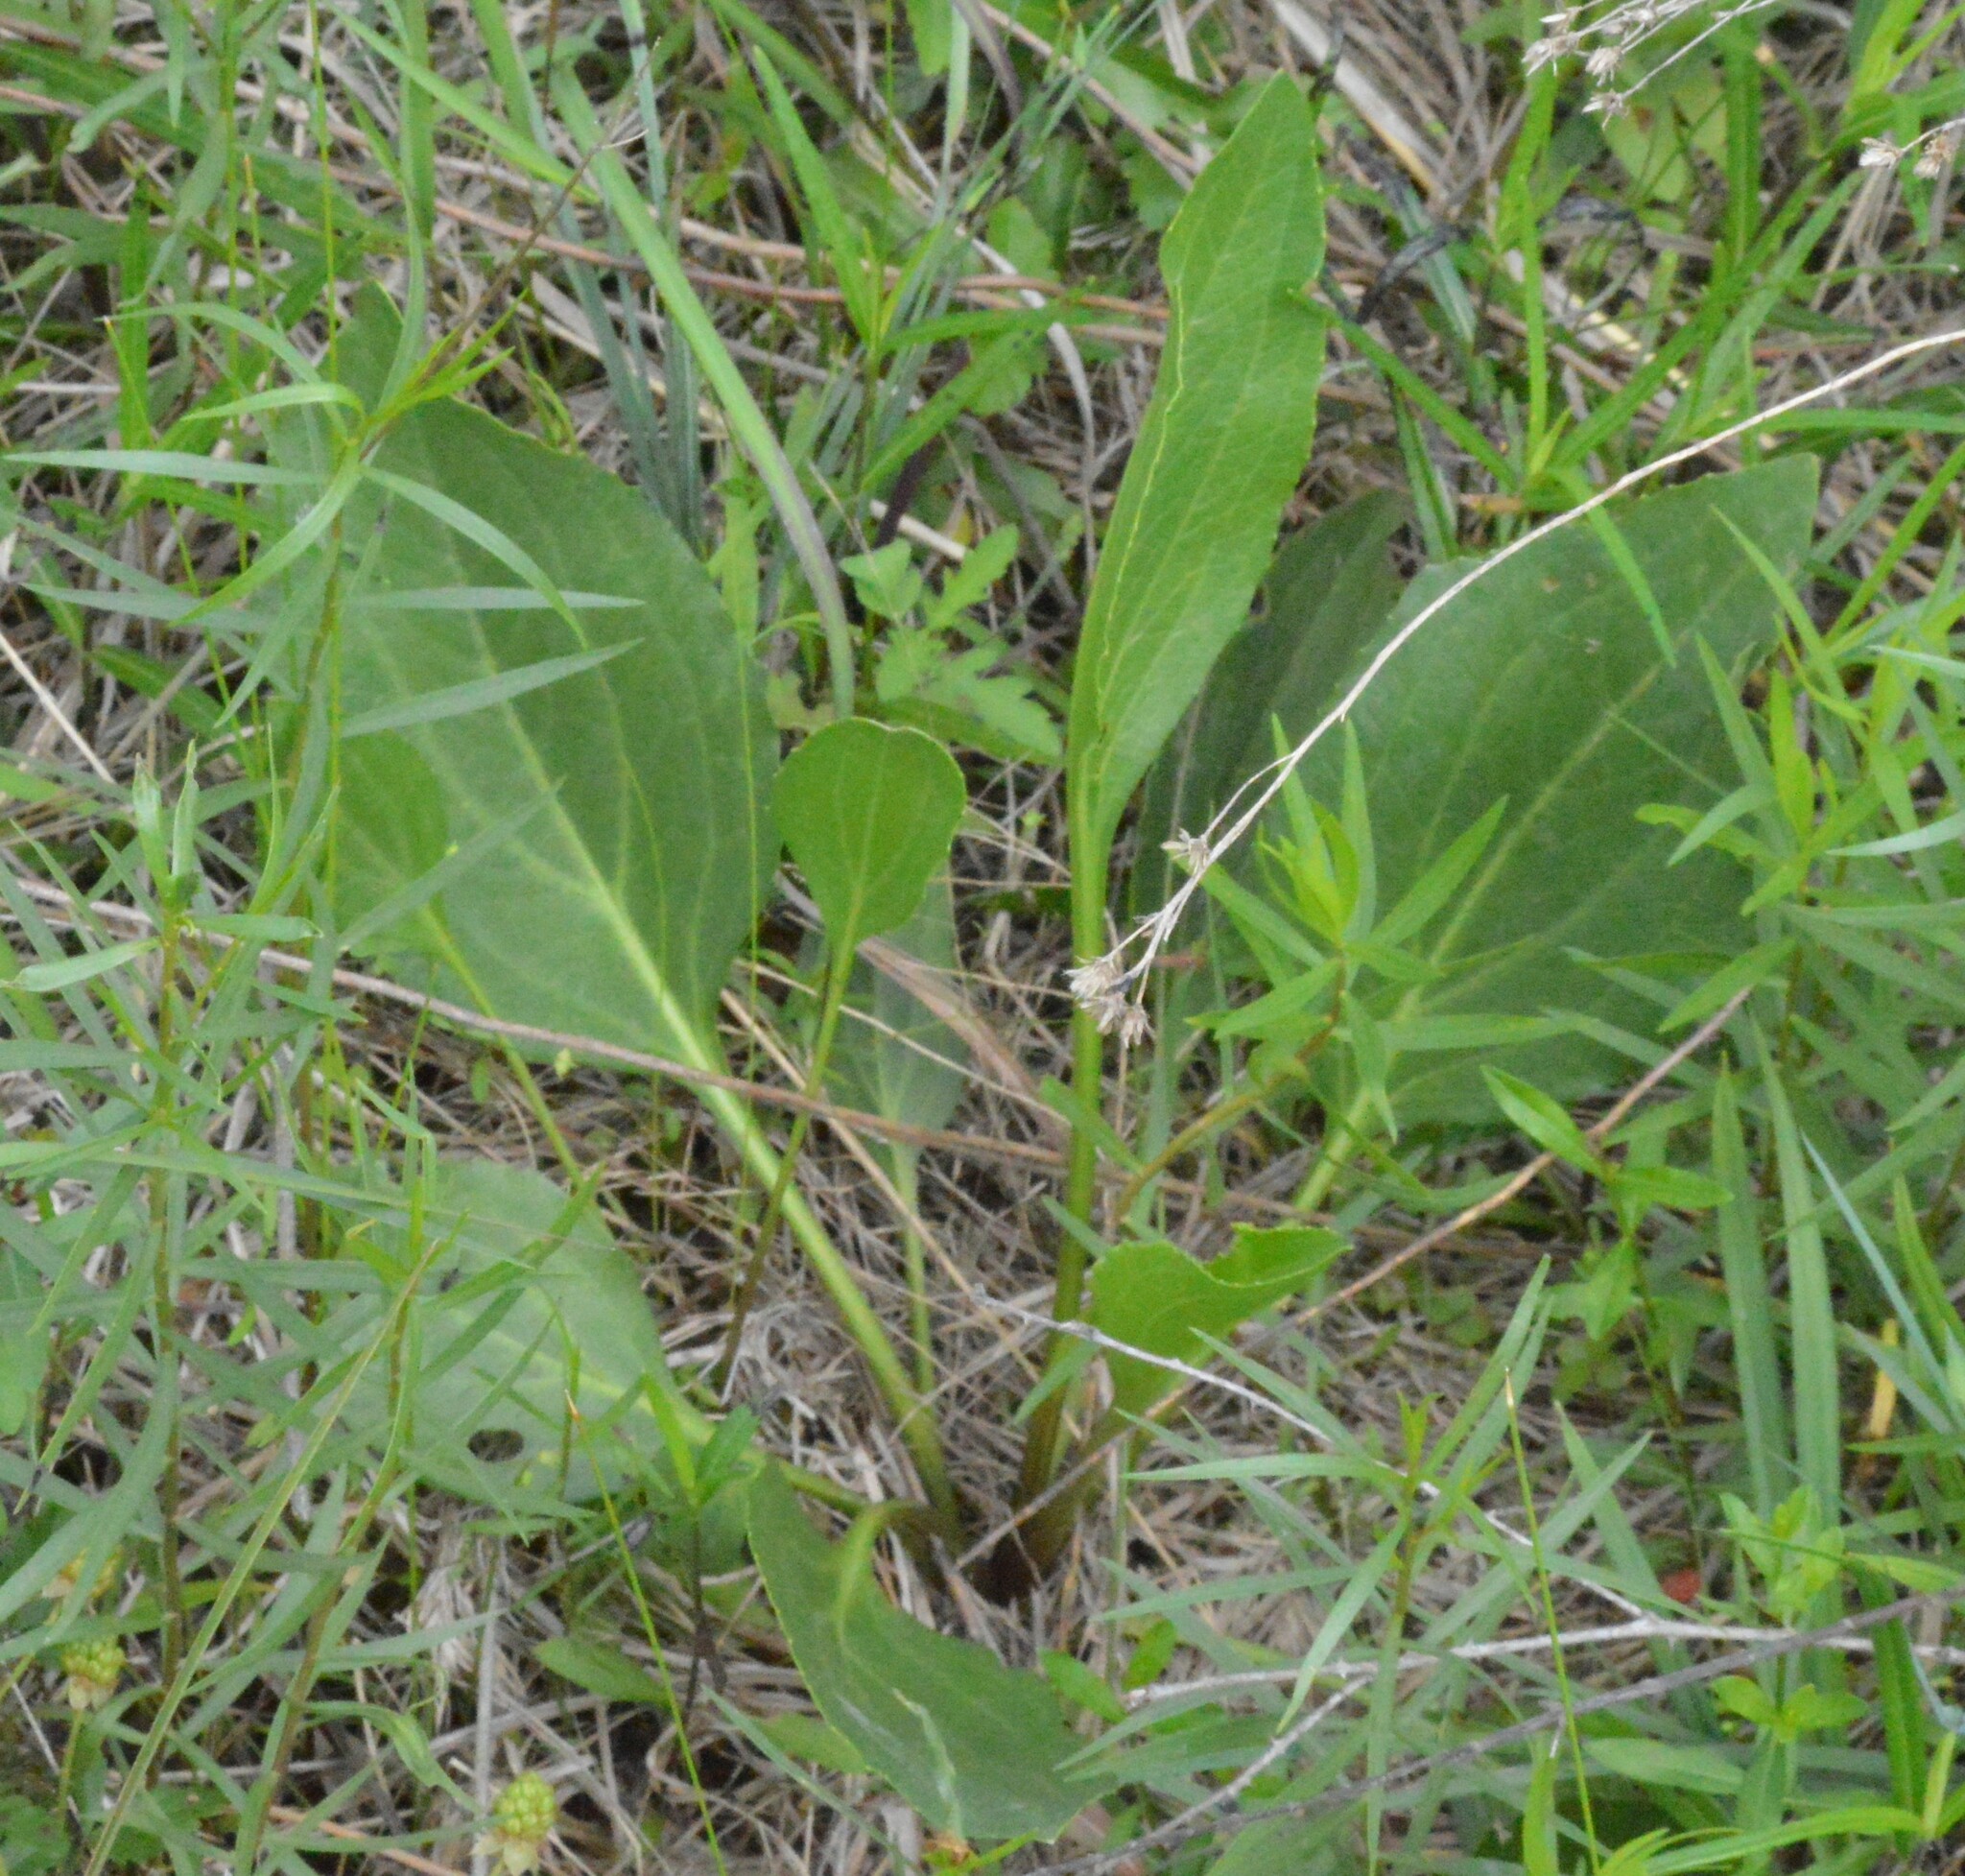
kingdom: Plantae
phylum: Tracheophyta
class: Magnoliopsida
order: Asterales
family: Asteraceae
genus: Rudbeckia
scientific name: Rudbeckia texana
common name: Texas coneflower
